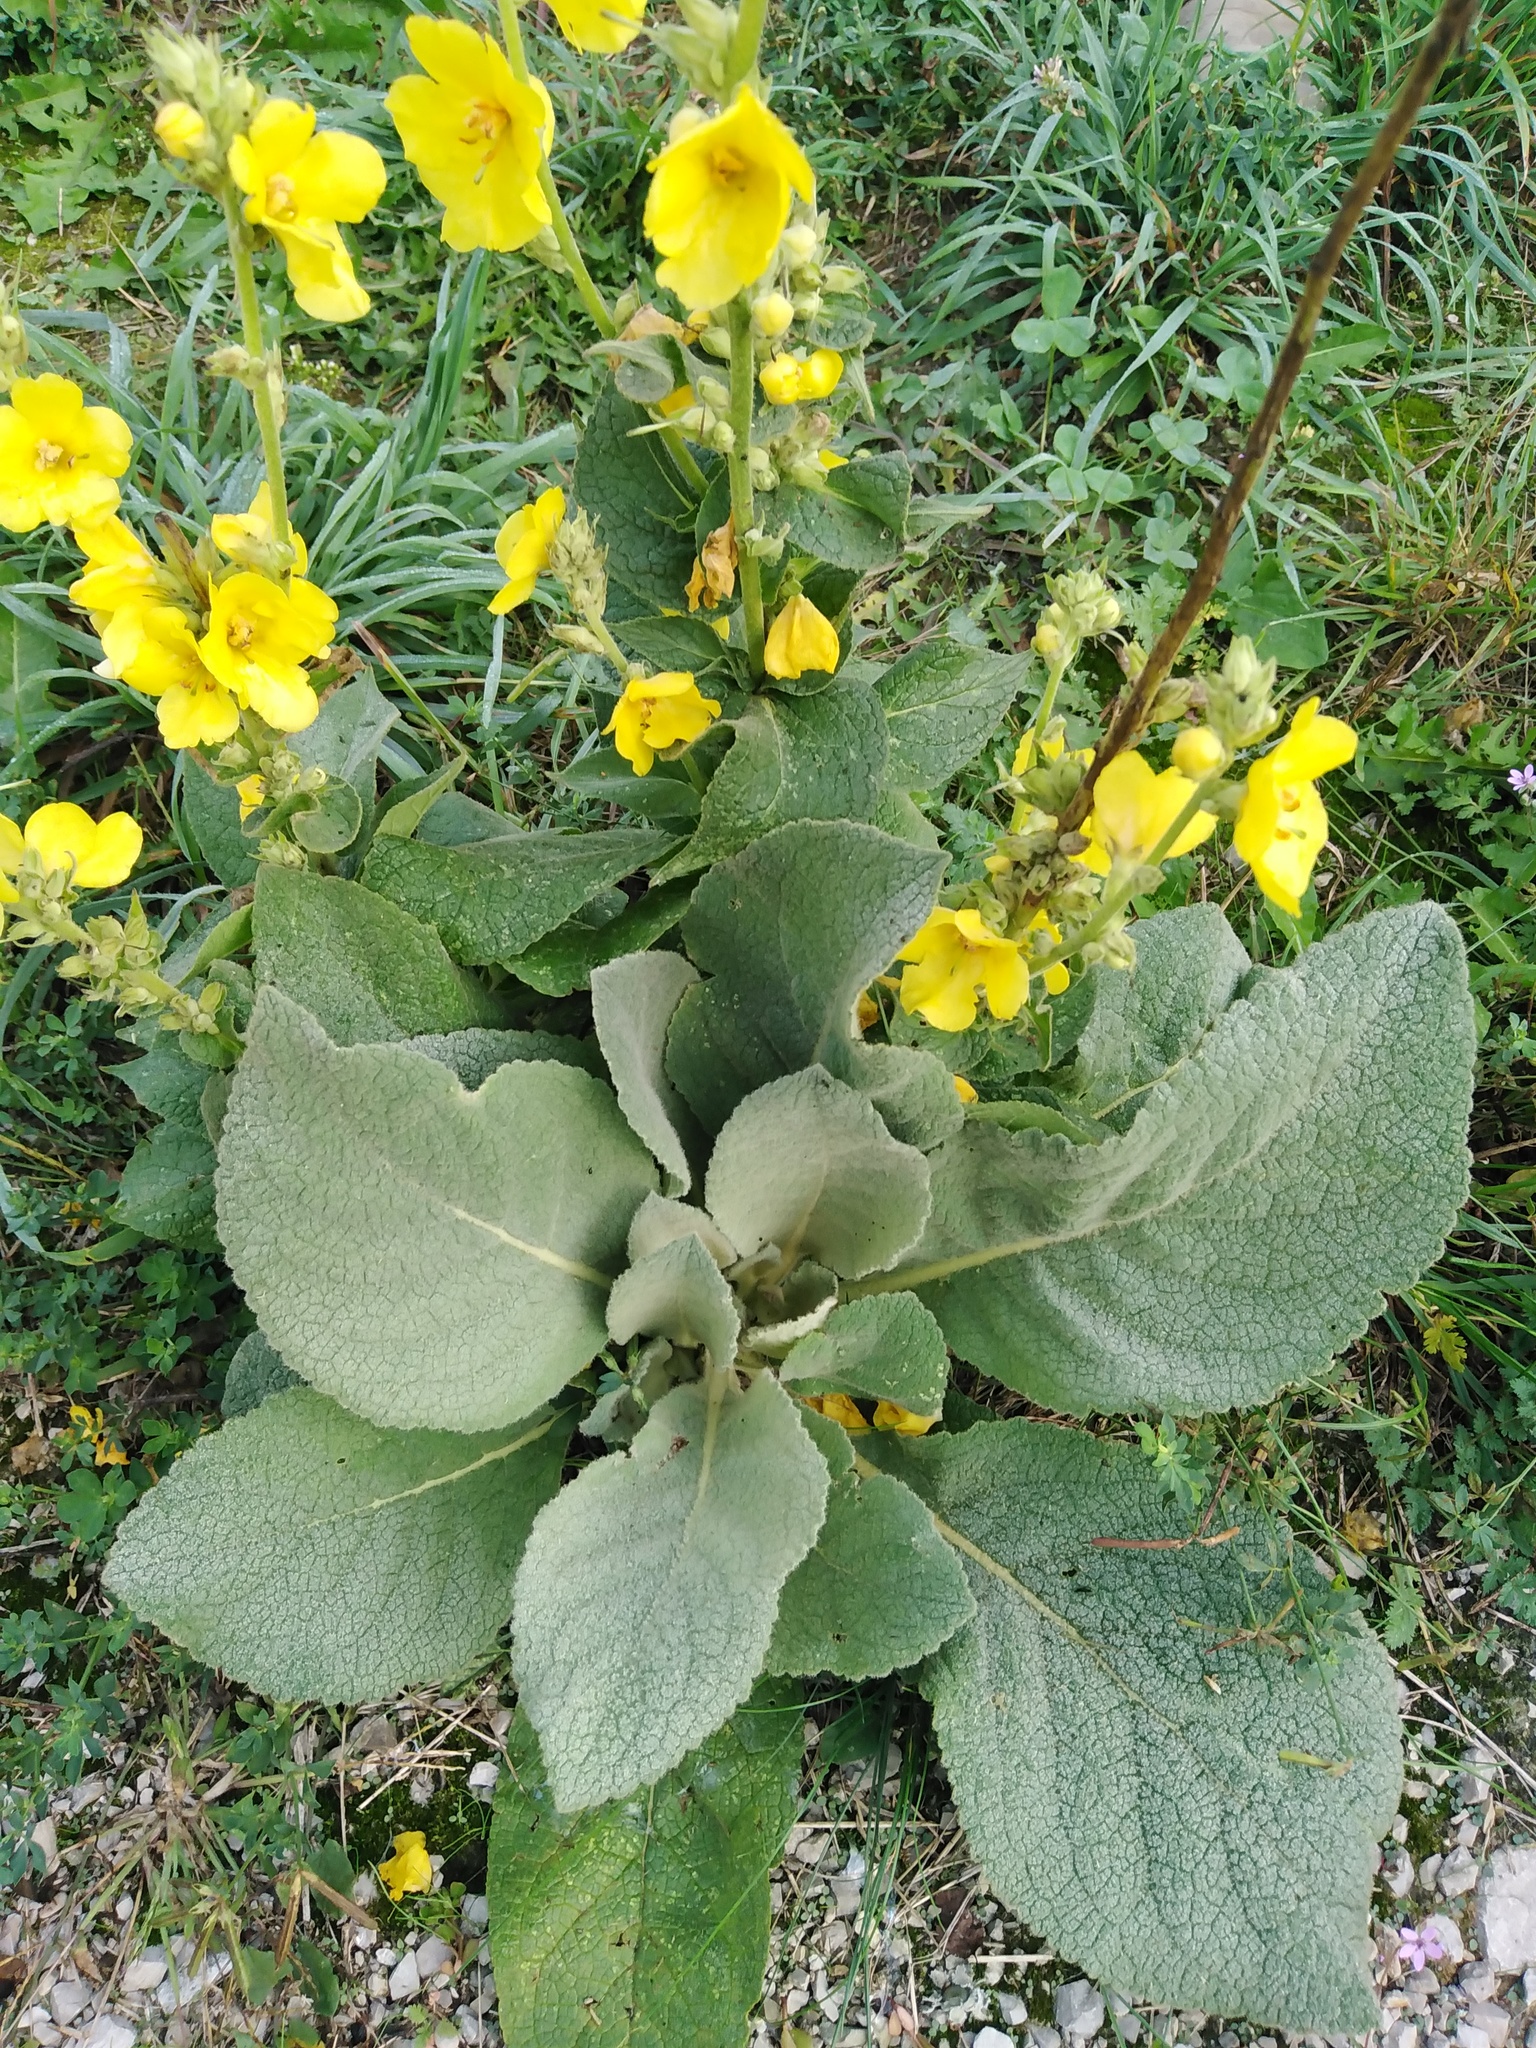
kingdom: Plantae
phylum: Tracheophyta
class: Magnoliopsida
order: Lamiales
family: Scrophulariaceae
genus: Verbascum
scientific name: Verbascum phlomoides
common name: Orange mullein
